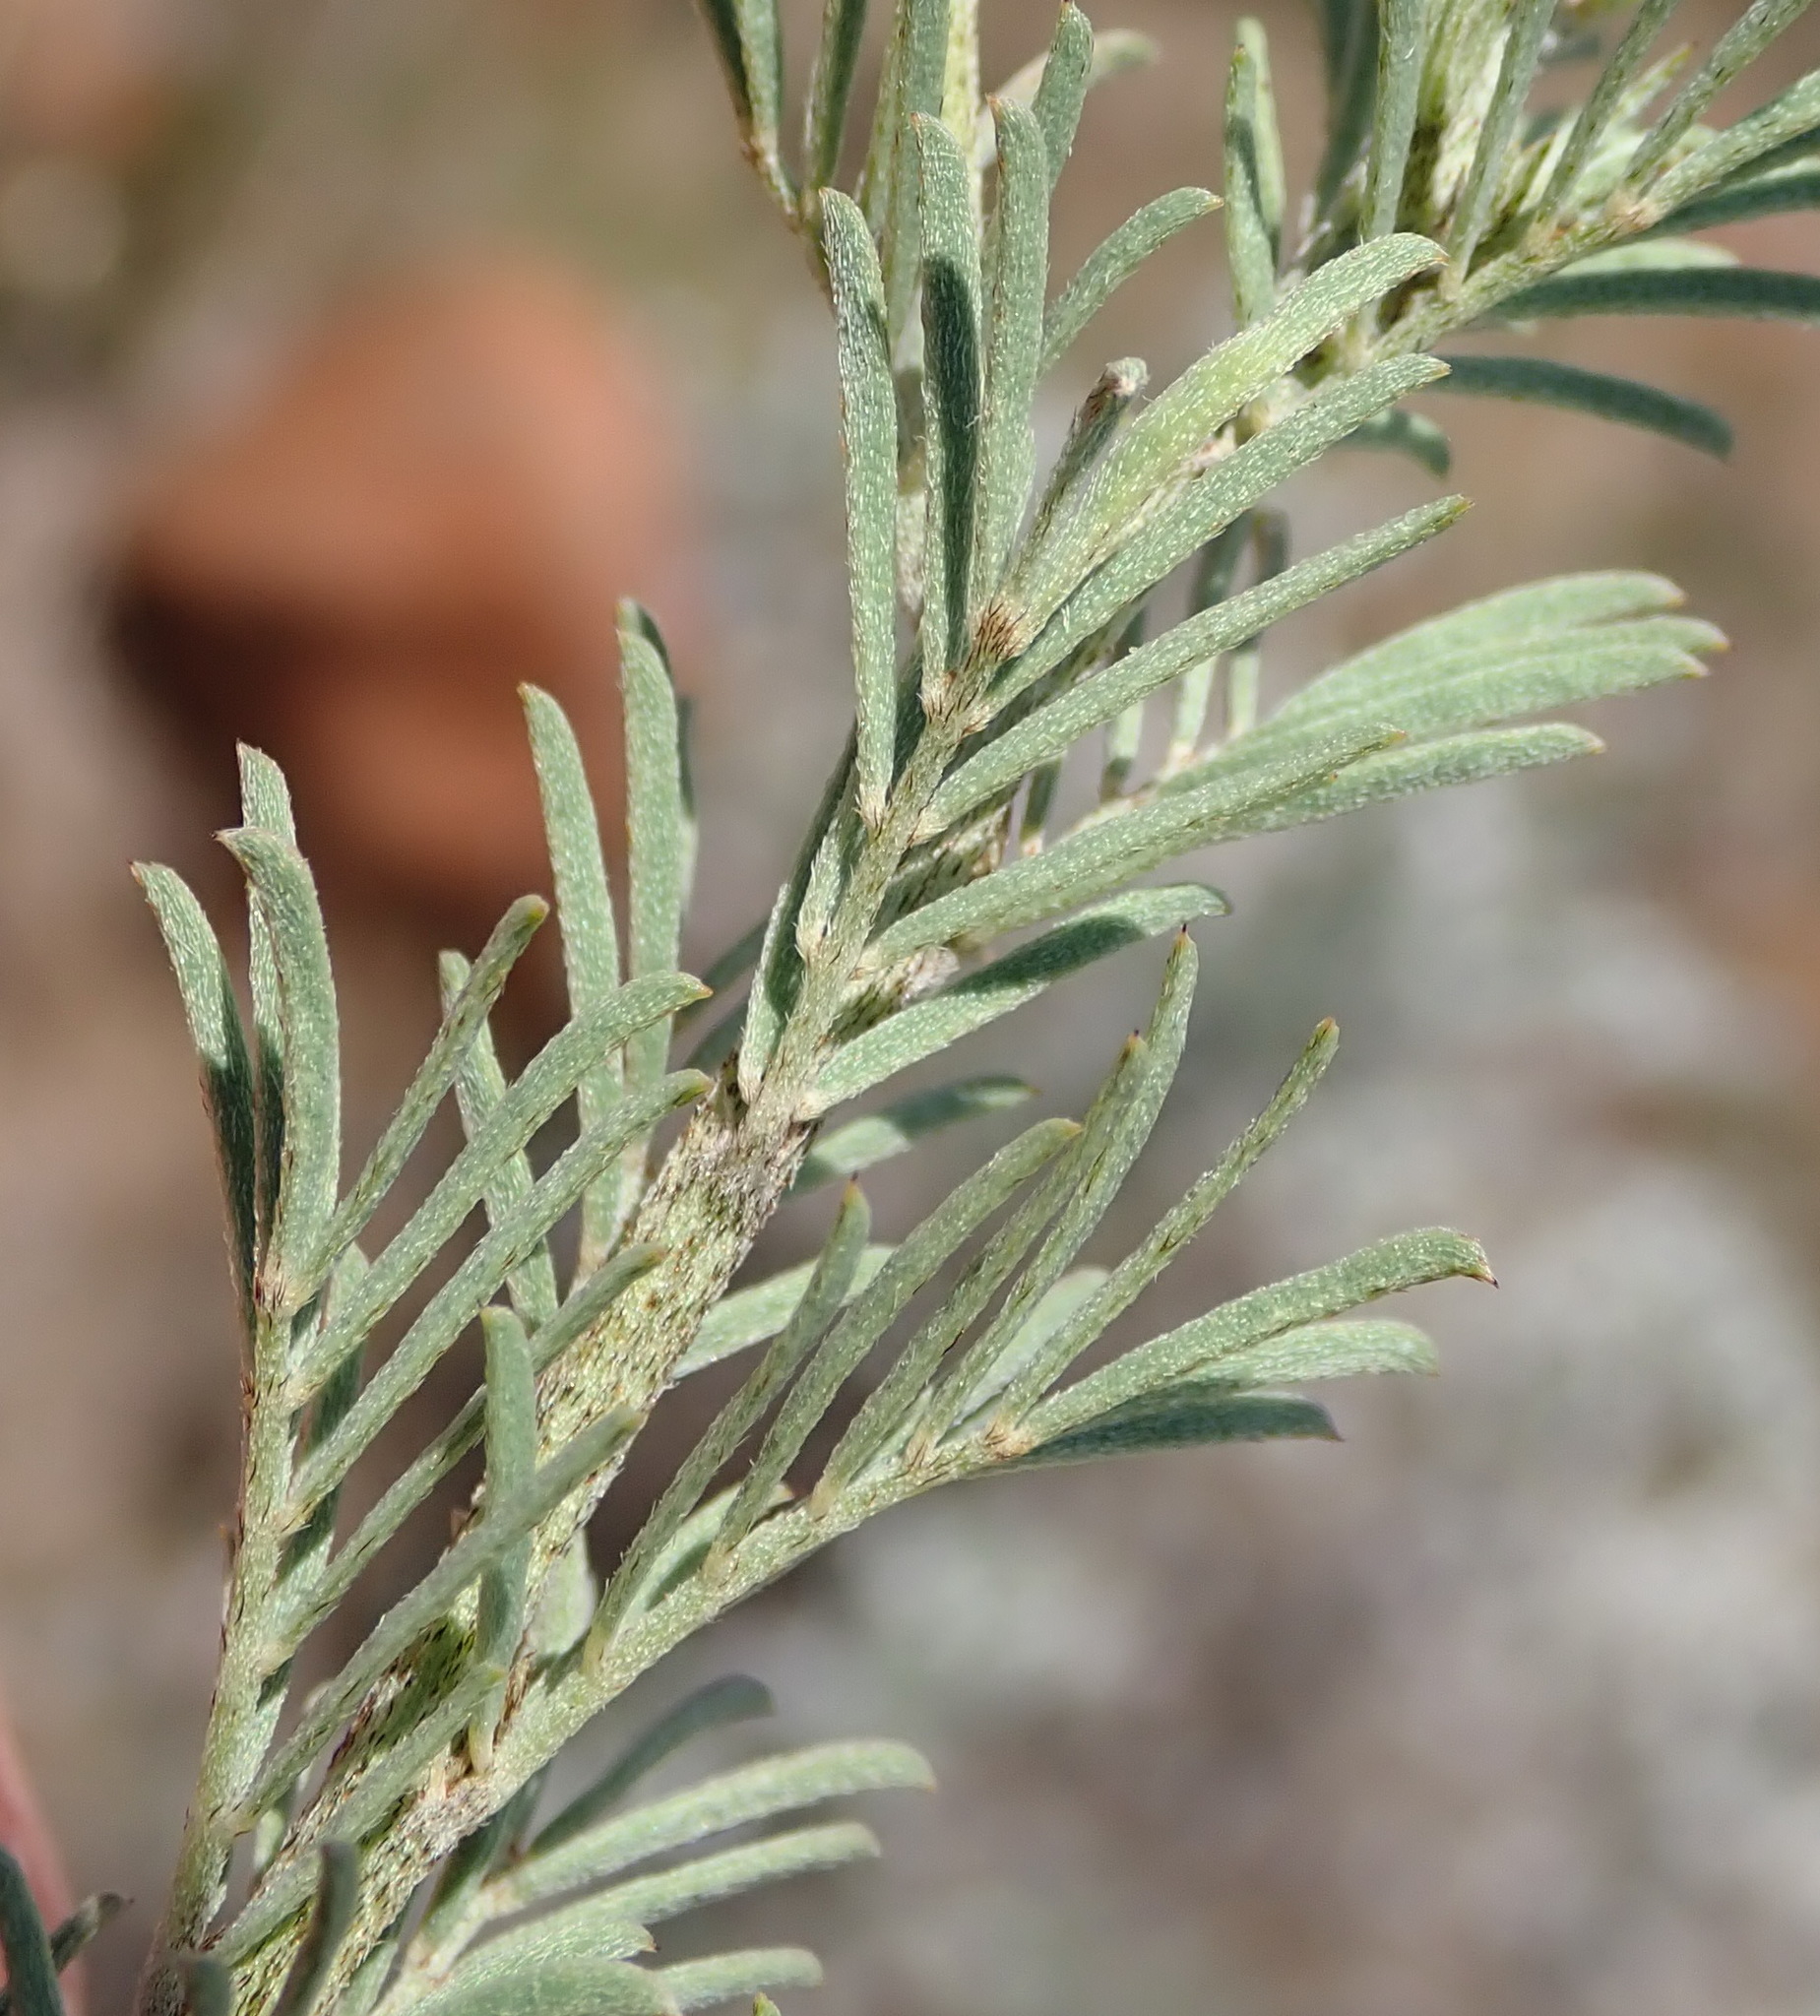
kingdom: Plantae
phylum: Tracheophyta
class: Magnoliopsida
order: Fabales
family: Fabaceae
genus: Indigofera
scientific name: Indigofera hedyantha
